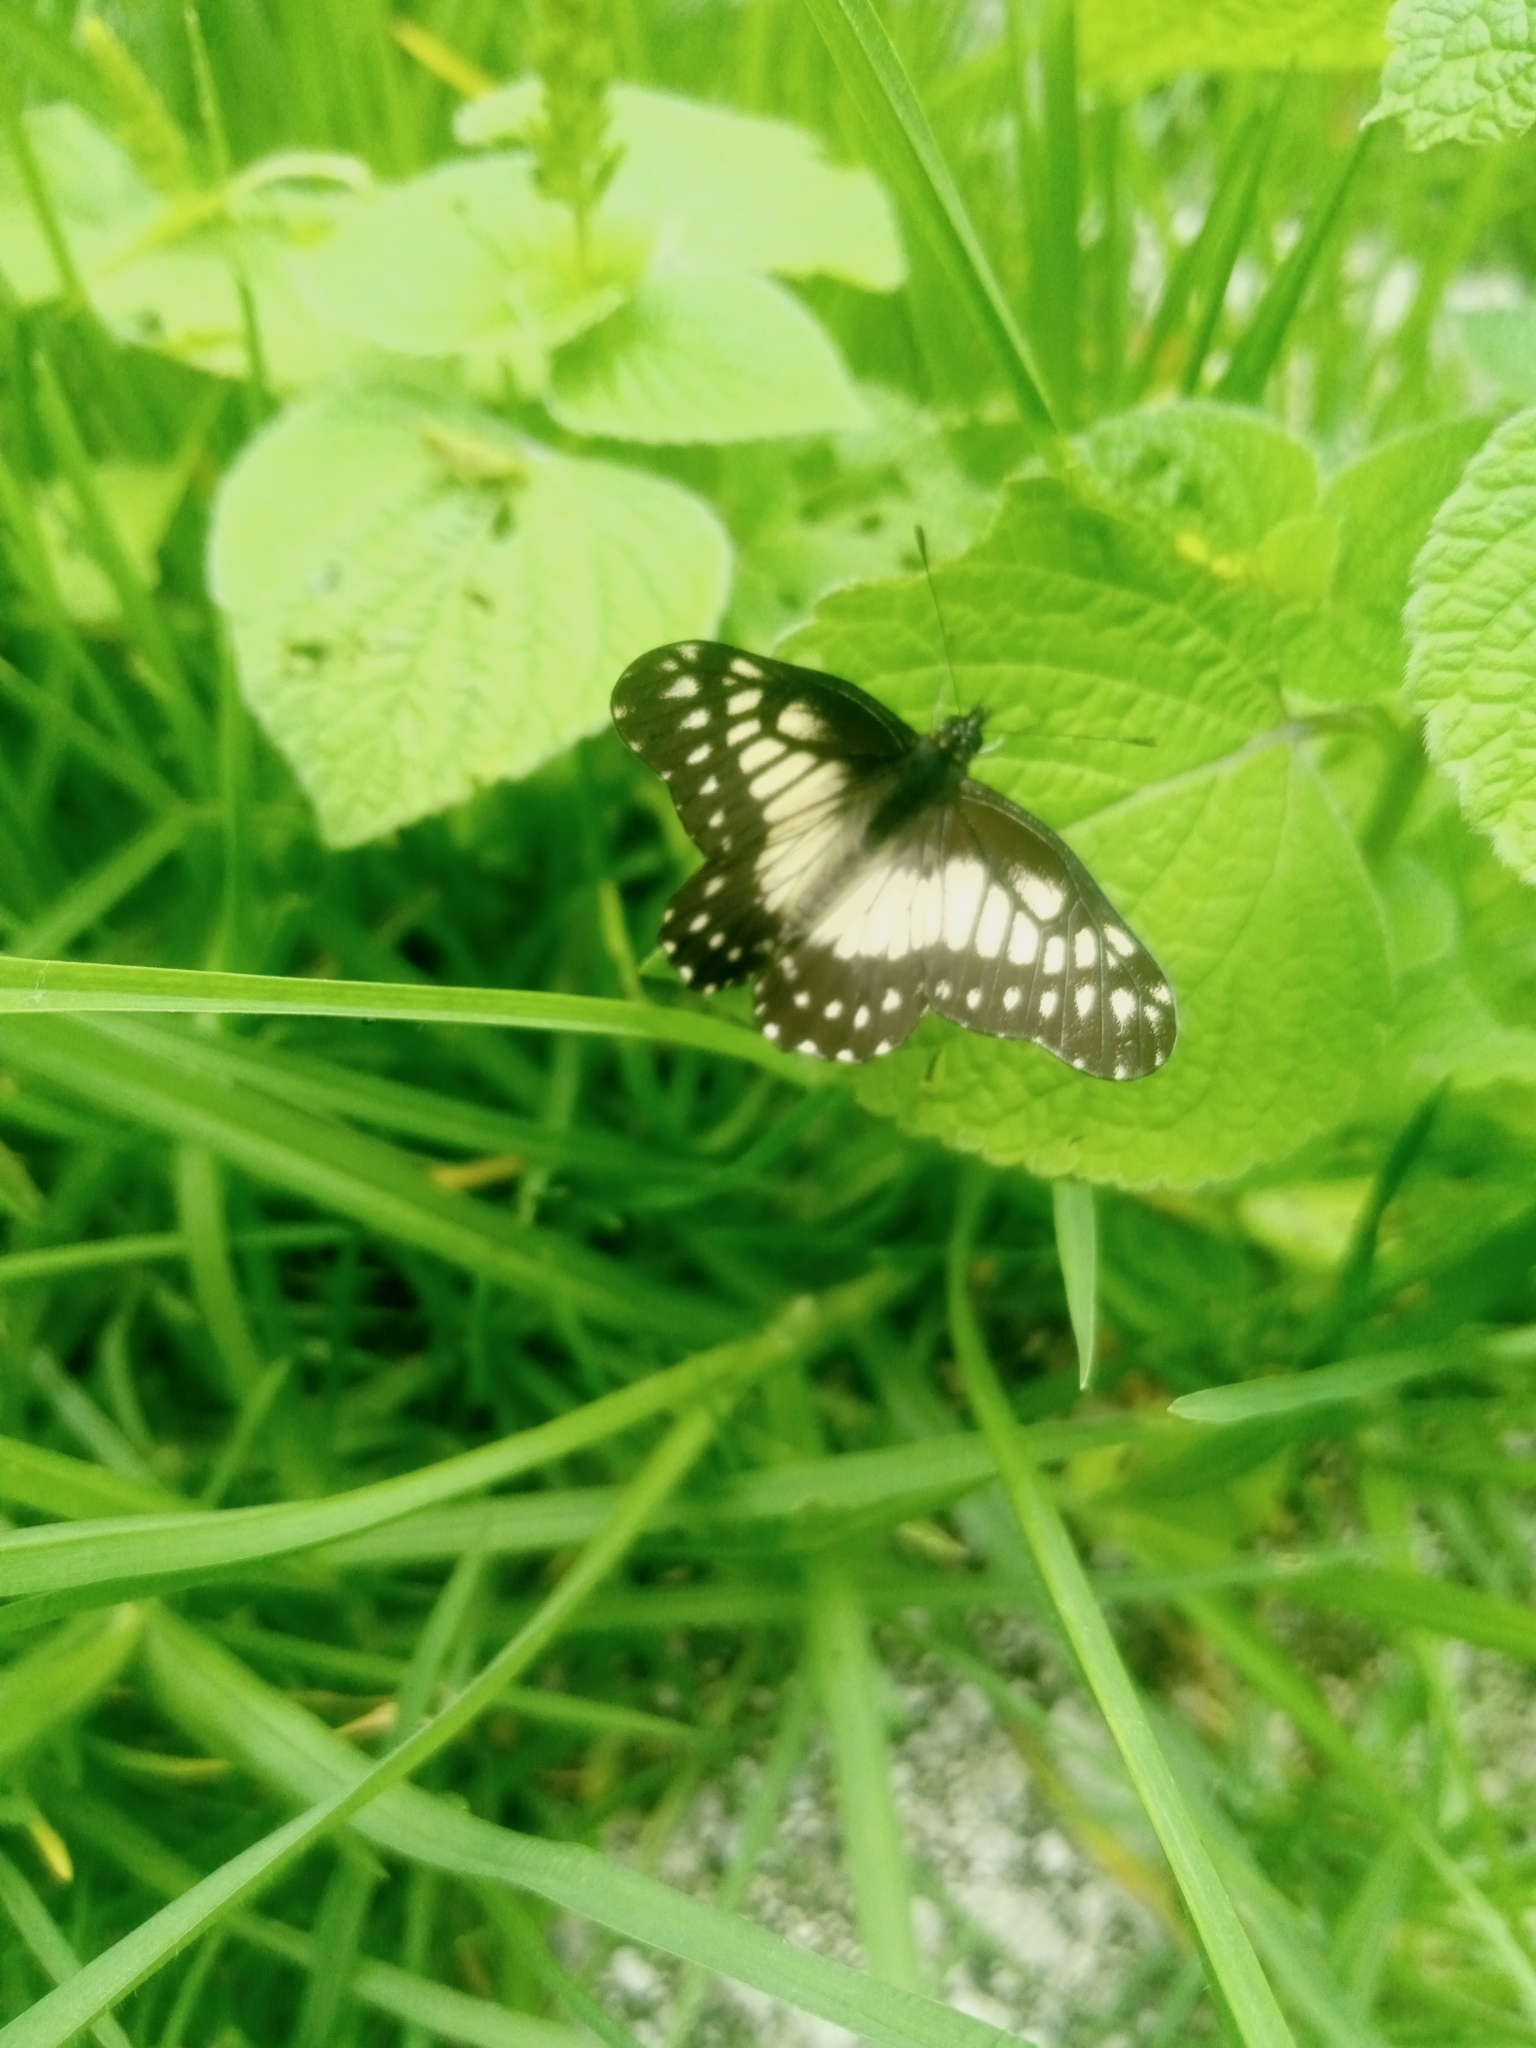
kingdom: Animalia
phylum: Arthropoda
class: Insecta
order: Lepidoptera
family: Pieridae
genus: Archonias
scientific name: Archonias nimbice
